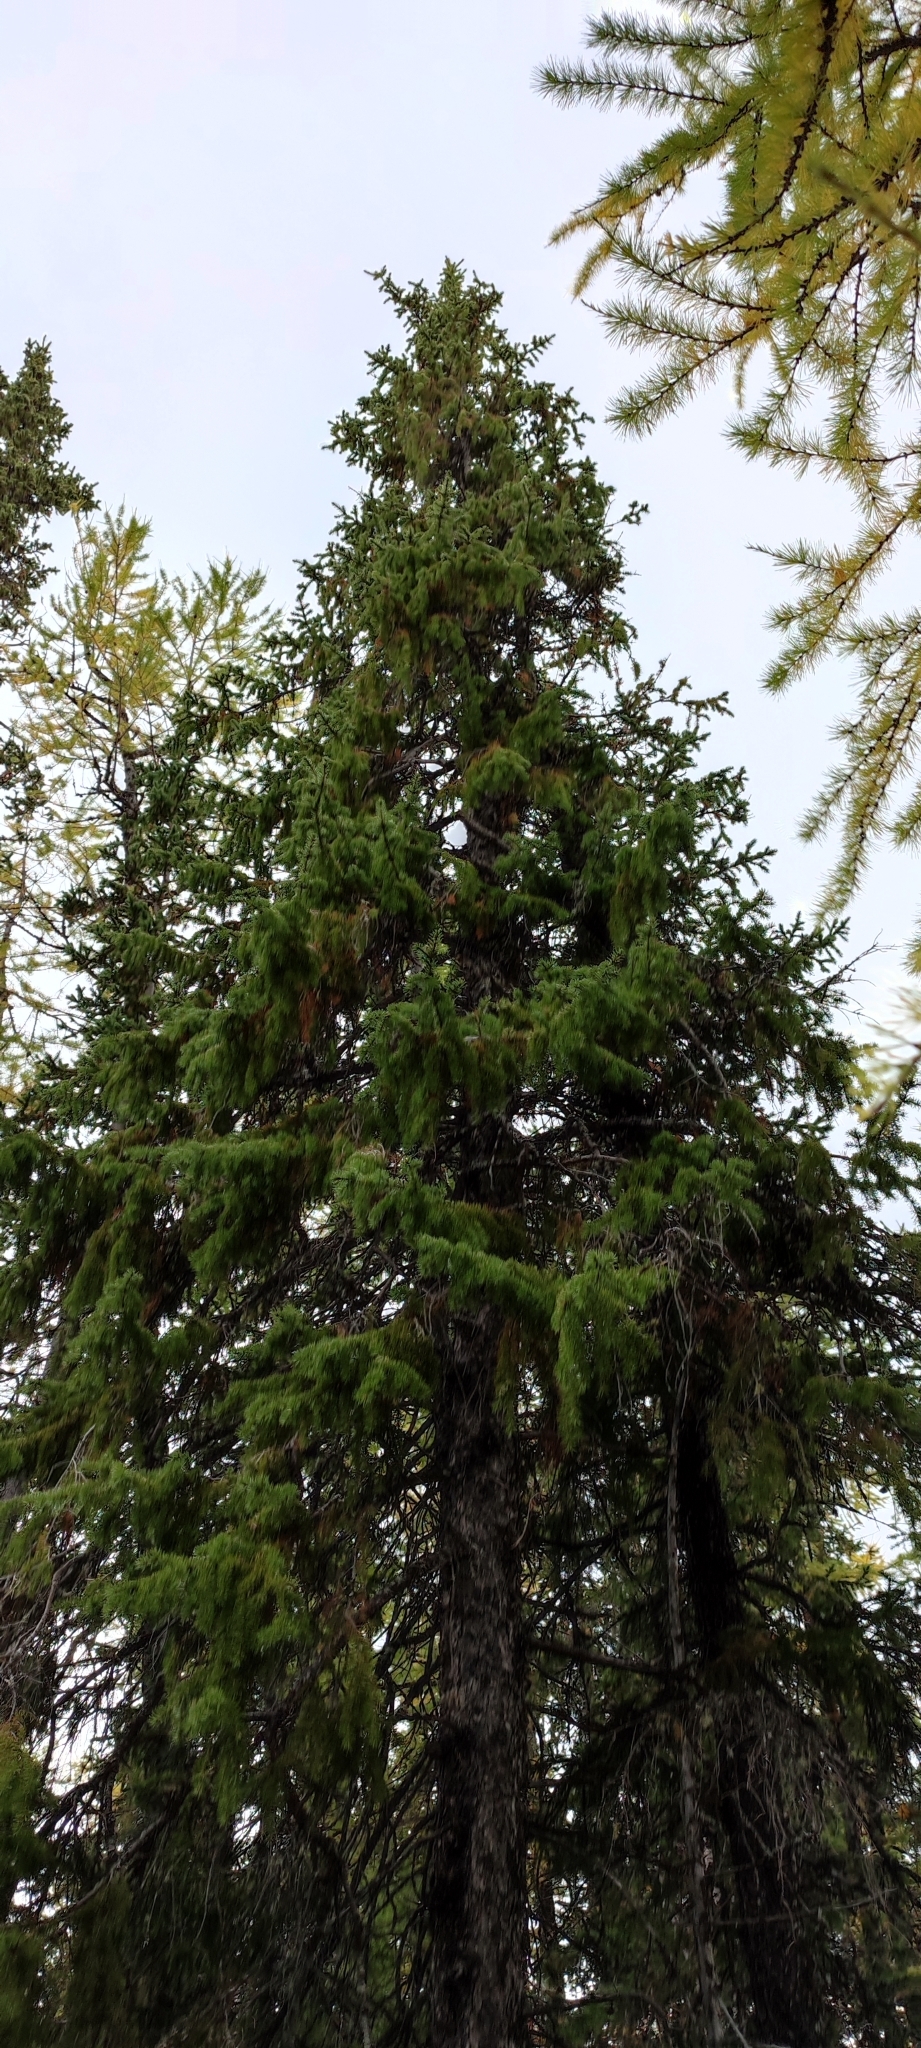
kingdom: Plantae
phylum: Tracheophyta
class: Pinopsida
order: Pinales
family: Pinaceae
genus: Picea
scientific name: Picea obovata
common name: Siberian spruce
